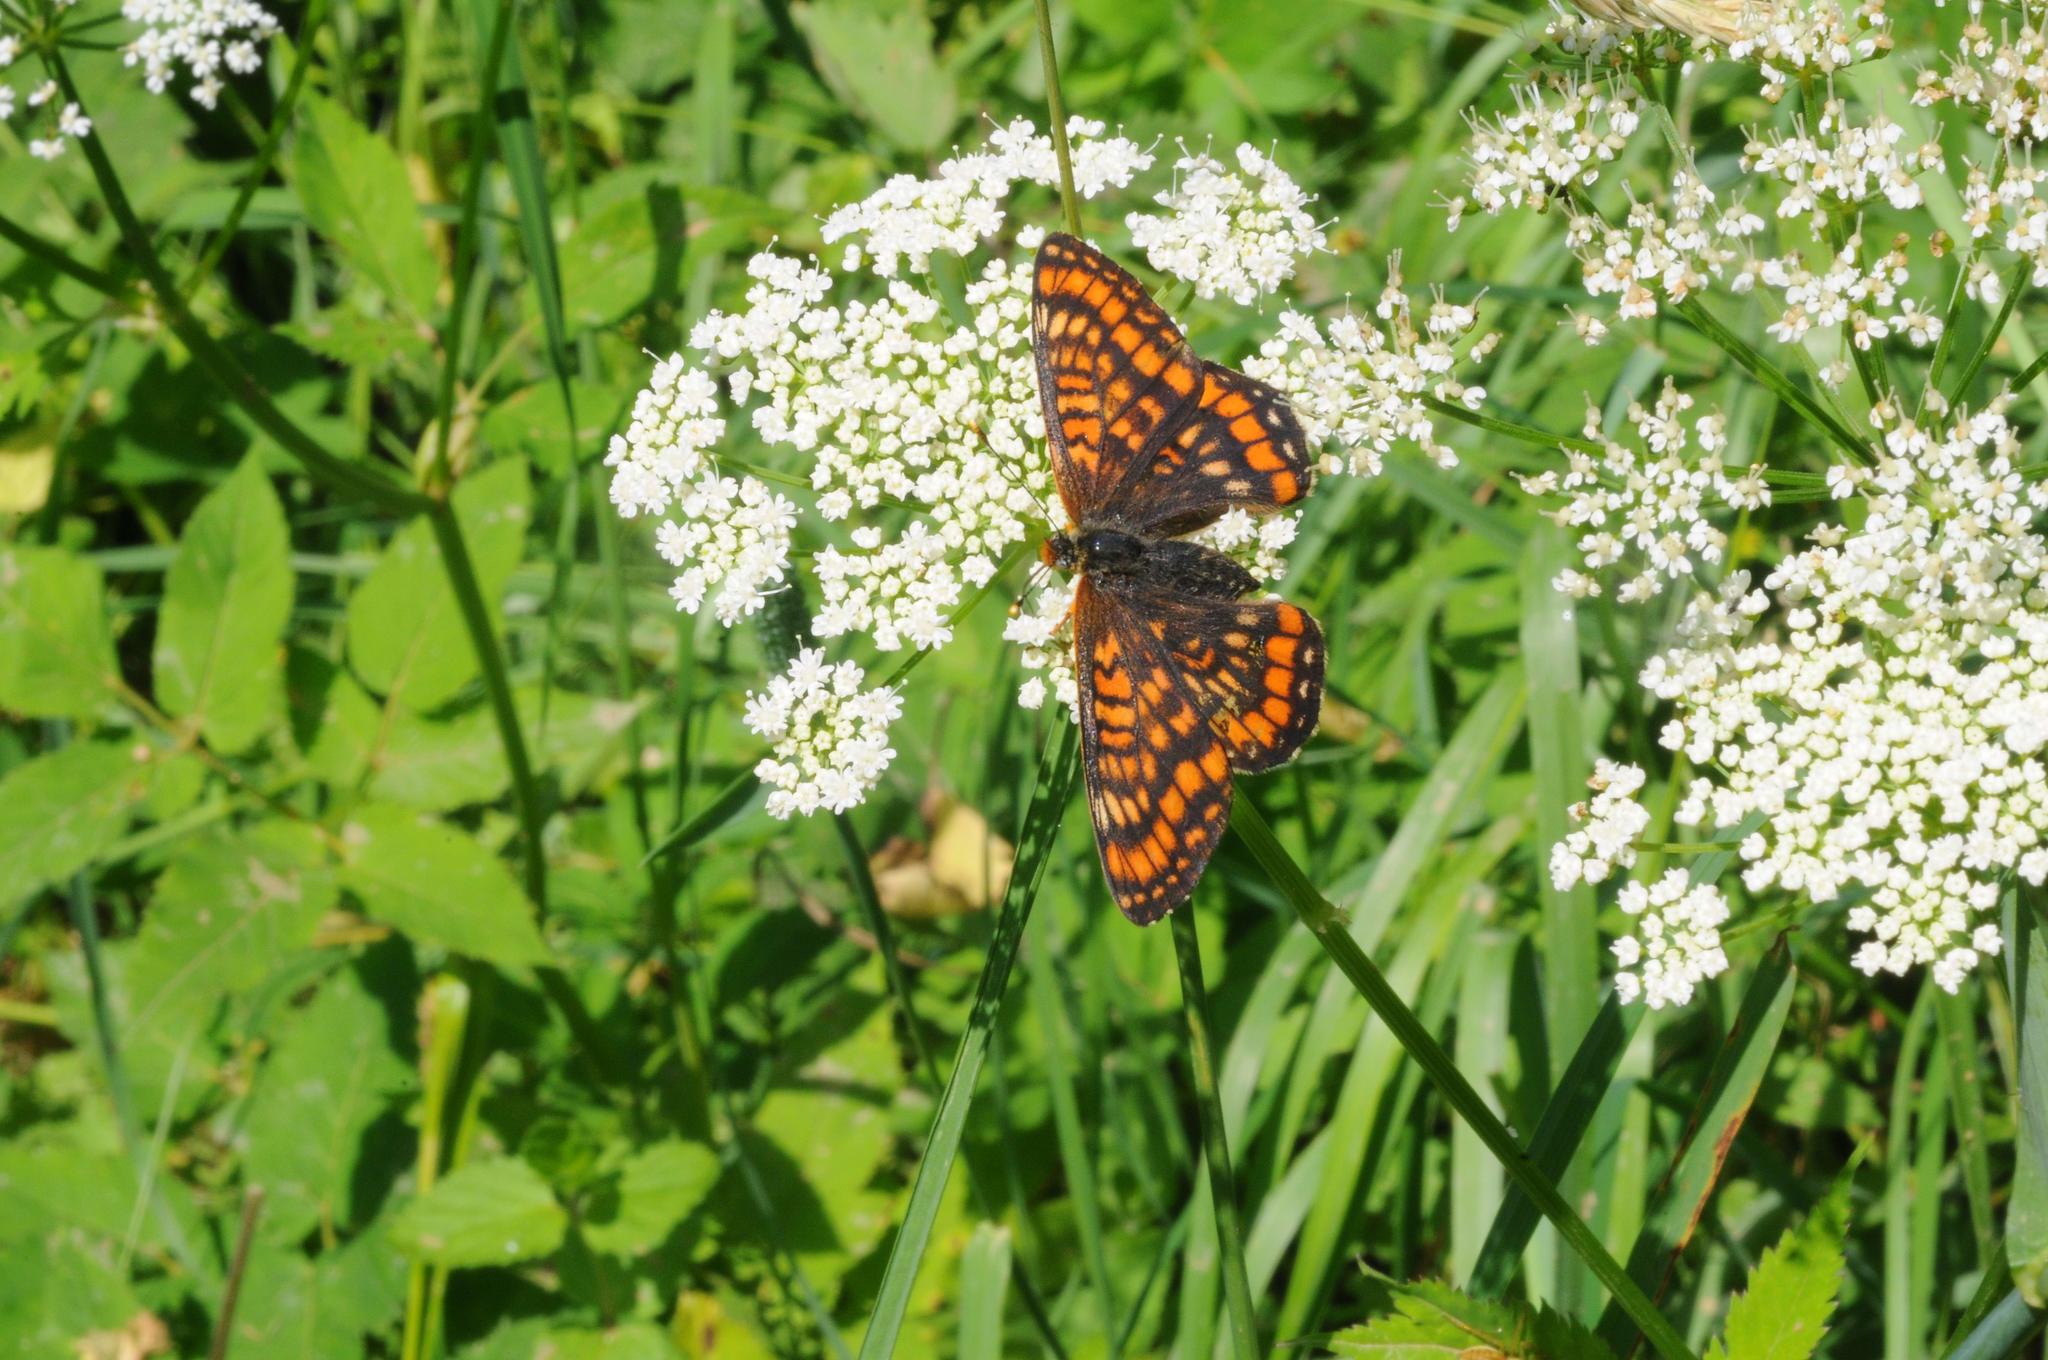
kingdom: Animalia
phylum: Arthropoda
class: Insecta
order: Lepidoptera
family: Nymphalidae
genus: Euphydryas
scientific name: Euphydryas maturna
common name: Scarce fritillary
